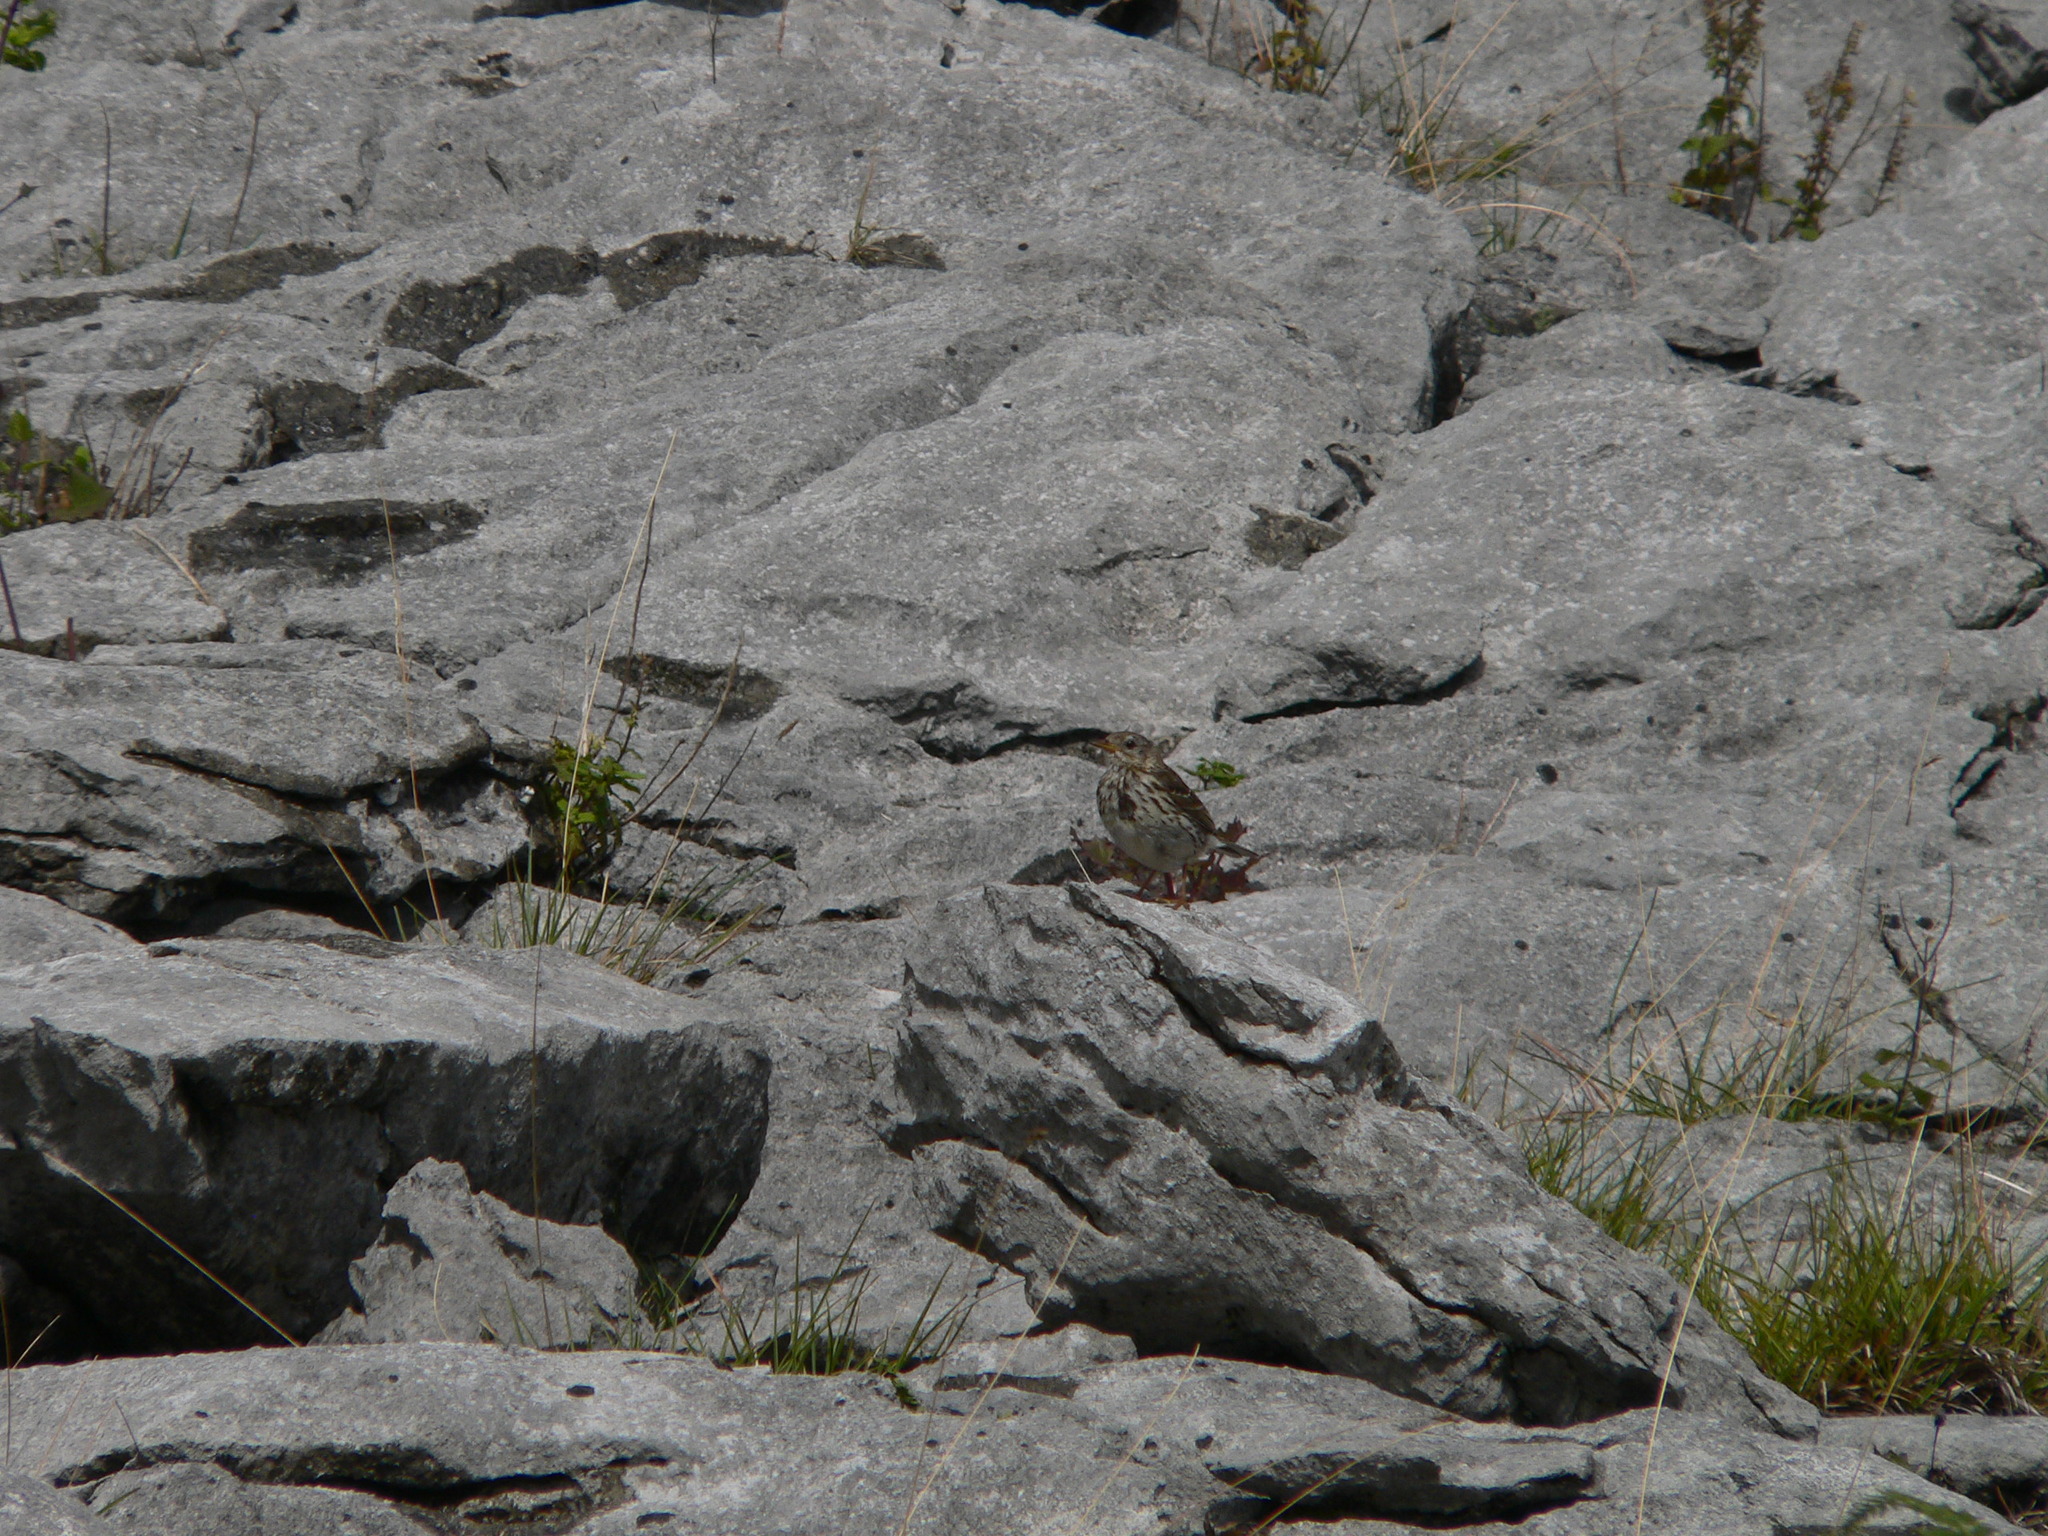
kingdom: Animalia
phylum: Chordata
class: Aves
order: Passeriformes
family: Motacillidae
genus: Anthus
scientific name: Anthus pratensis
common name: Meadow pipit
